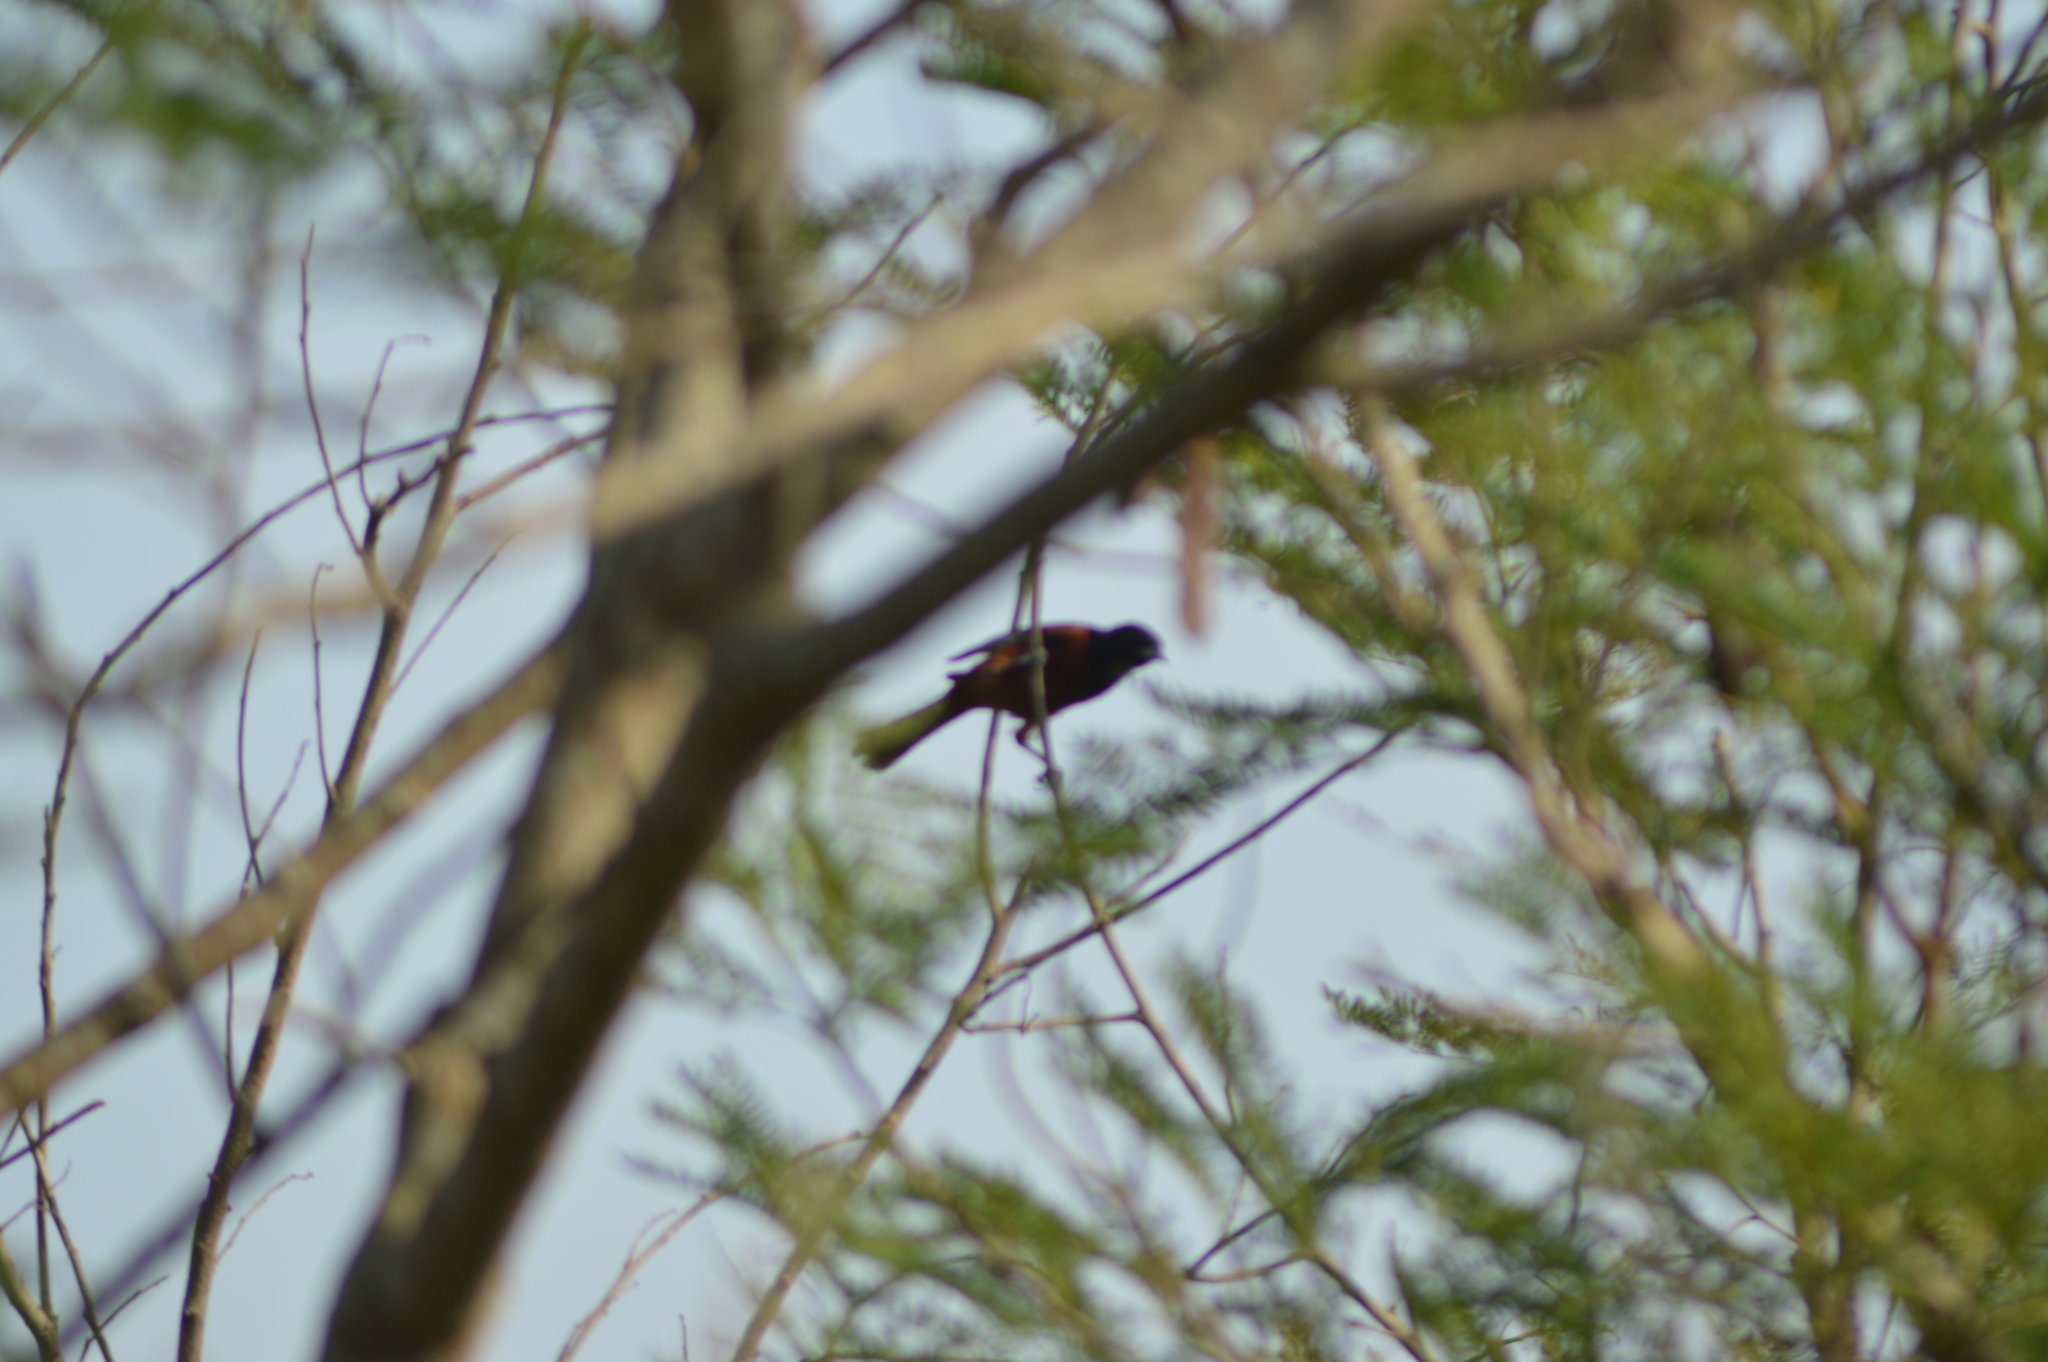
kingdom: Animalia
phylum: Chordata
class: Aves
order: Passeriformes
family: Icteridae
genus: Icterus
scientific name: Icterus spurius
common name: Orchard oriole
